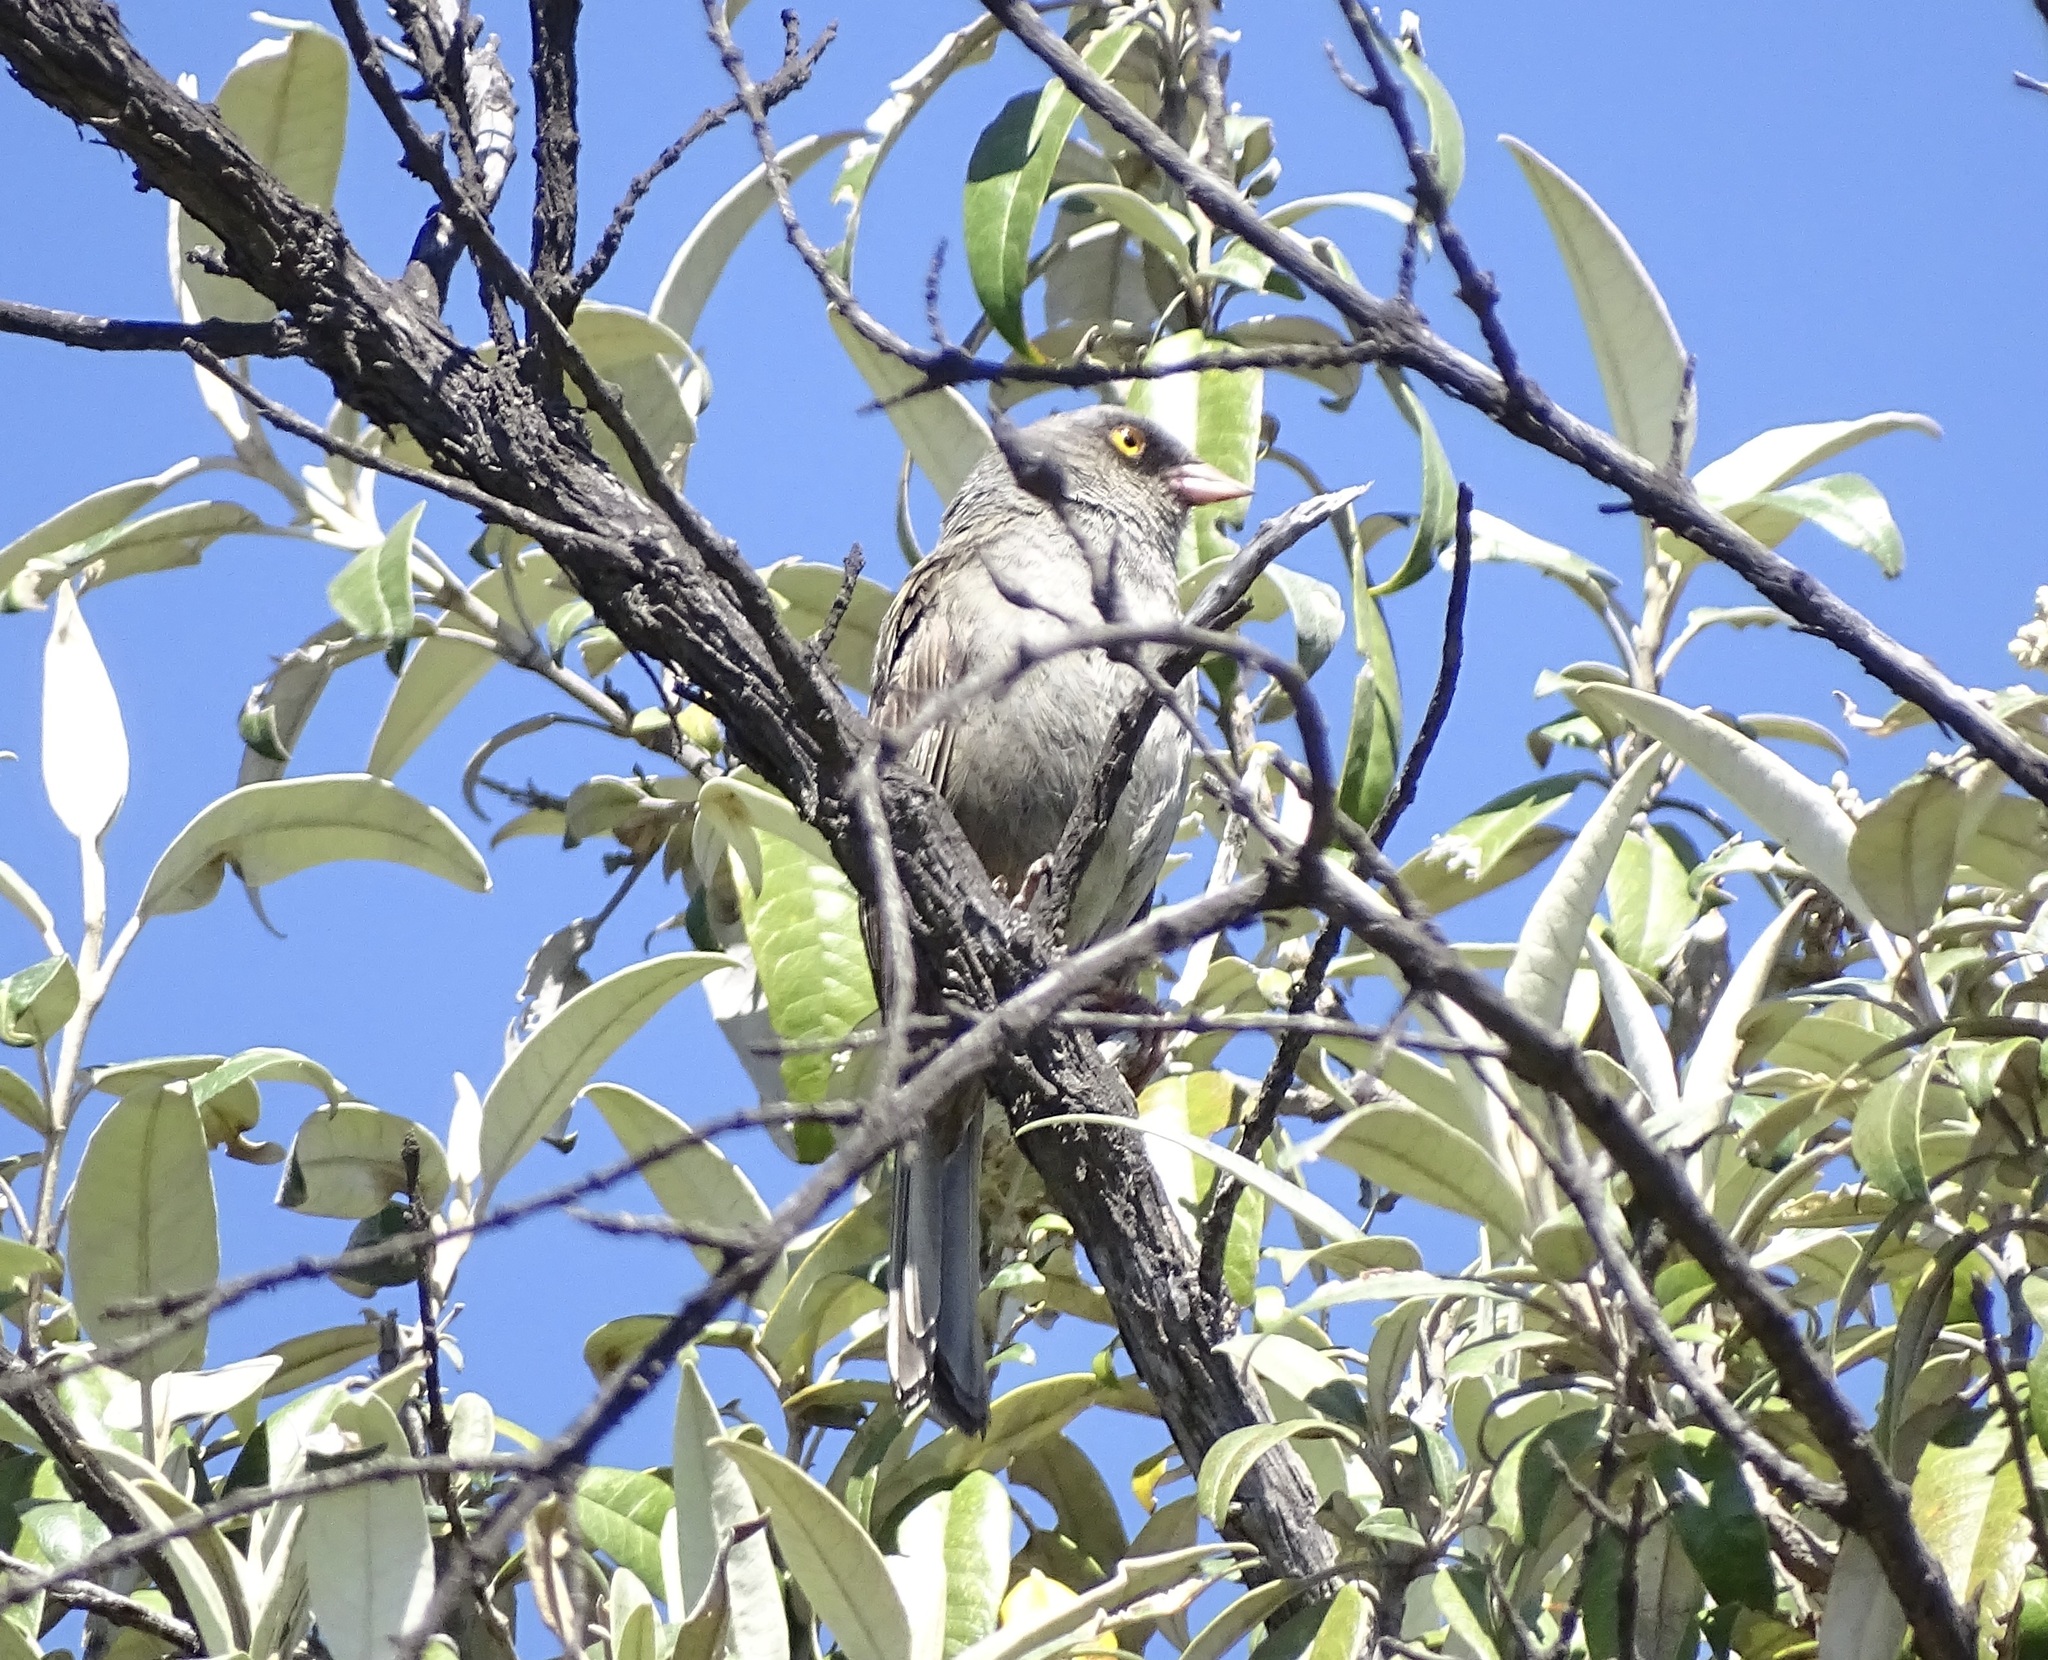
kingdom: Animalia
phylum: Chordata
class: Aves
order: Passeriformes
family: Passerellidae
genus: Junco
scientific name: Junco vulcani
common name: Volcano junco
